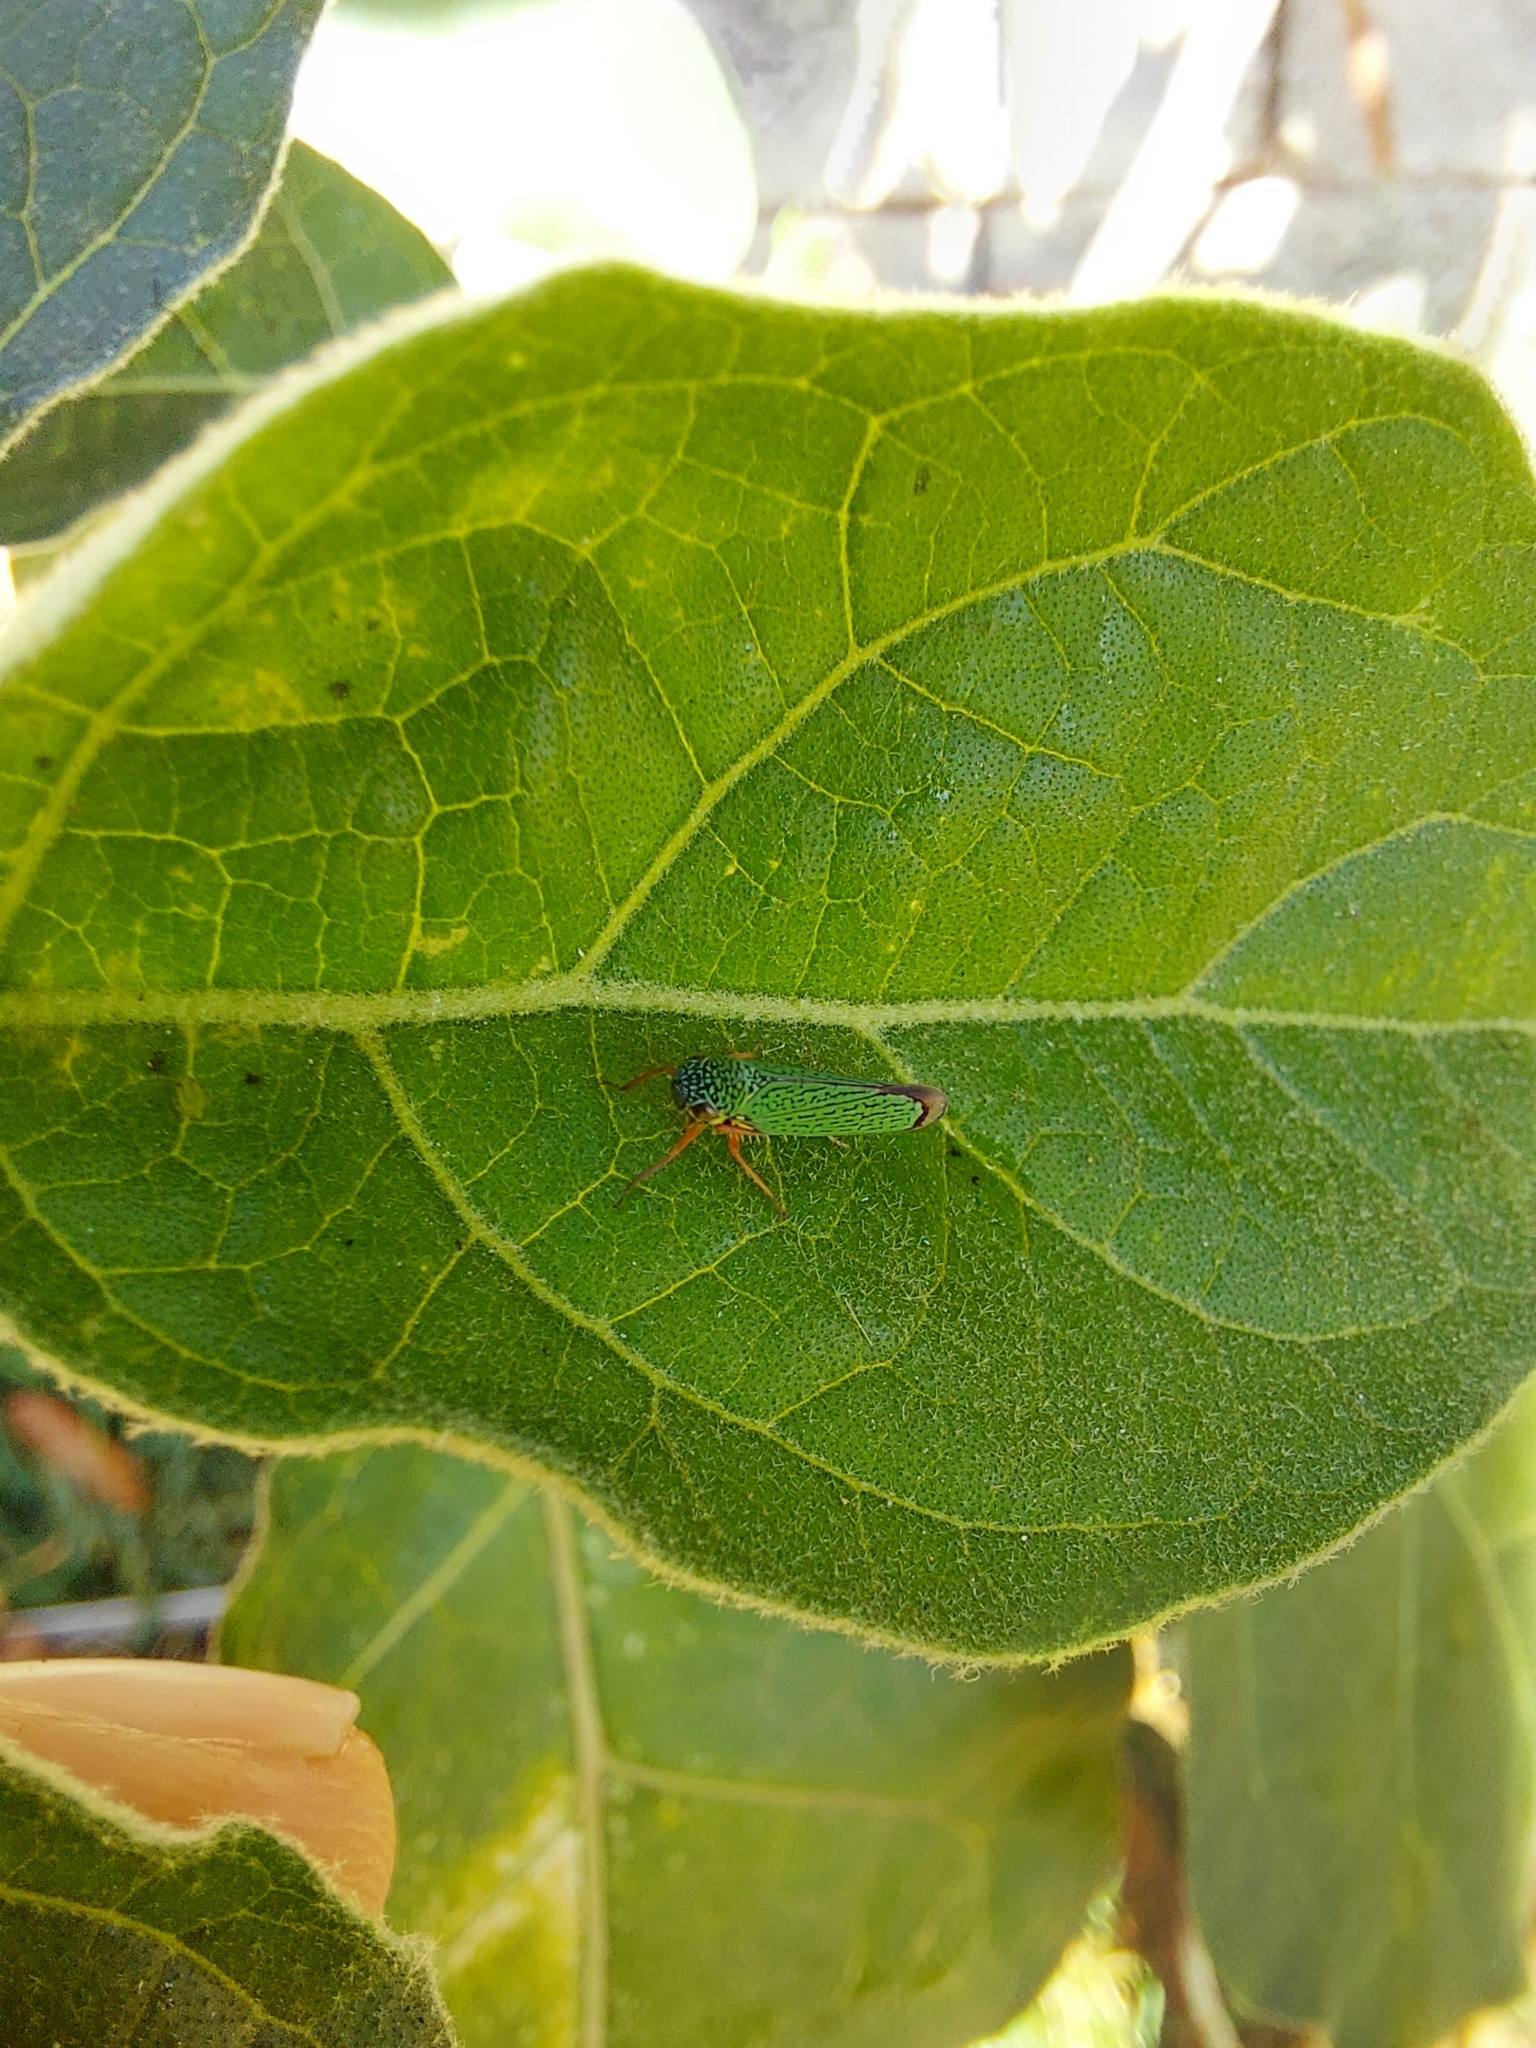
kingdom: Animalia
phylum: Arthropoda
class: Insecta
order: Hemiptera
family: Cicadellidae
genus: Versigonalia
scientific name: Versigonalia vermiculata
